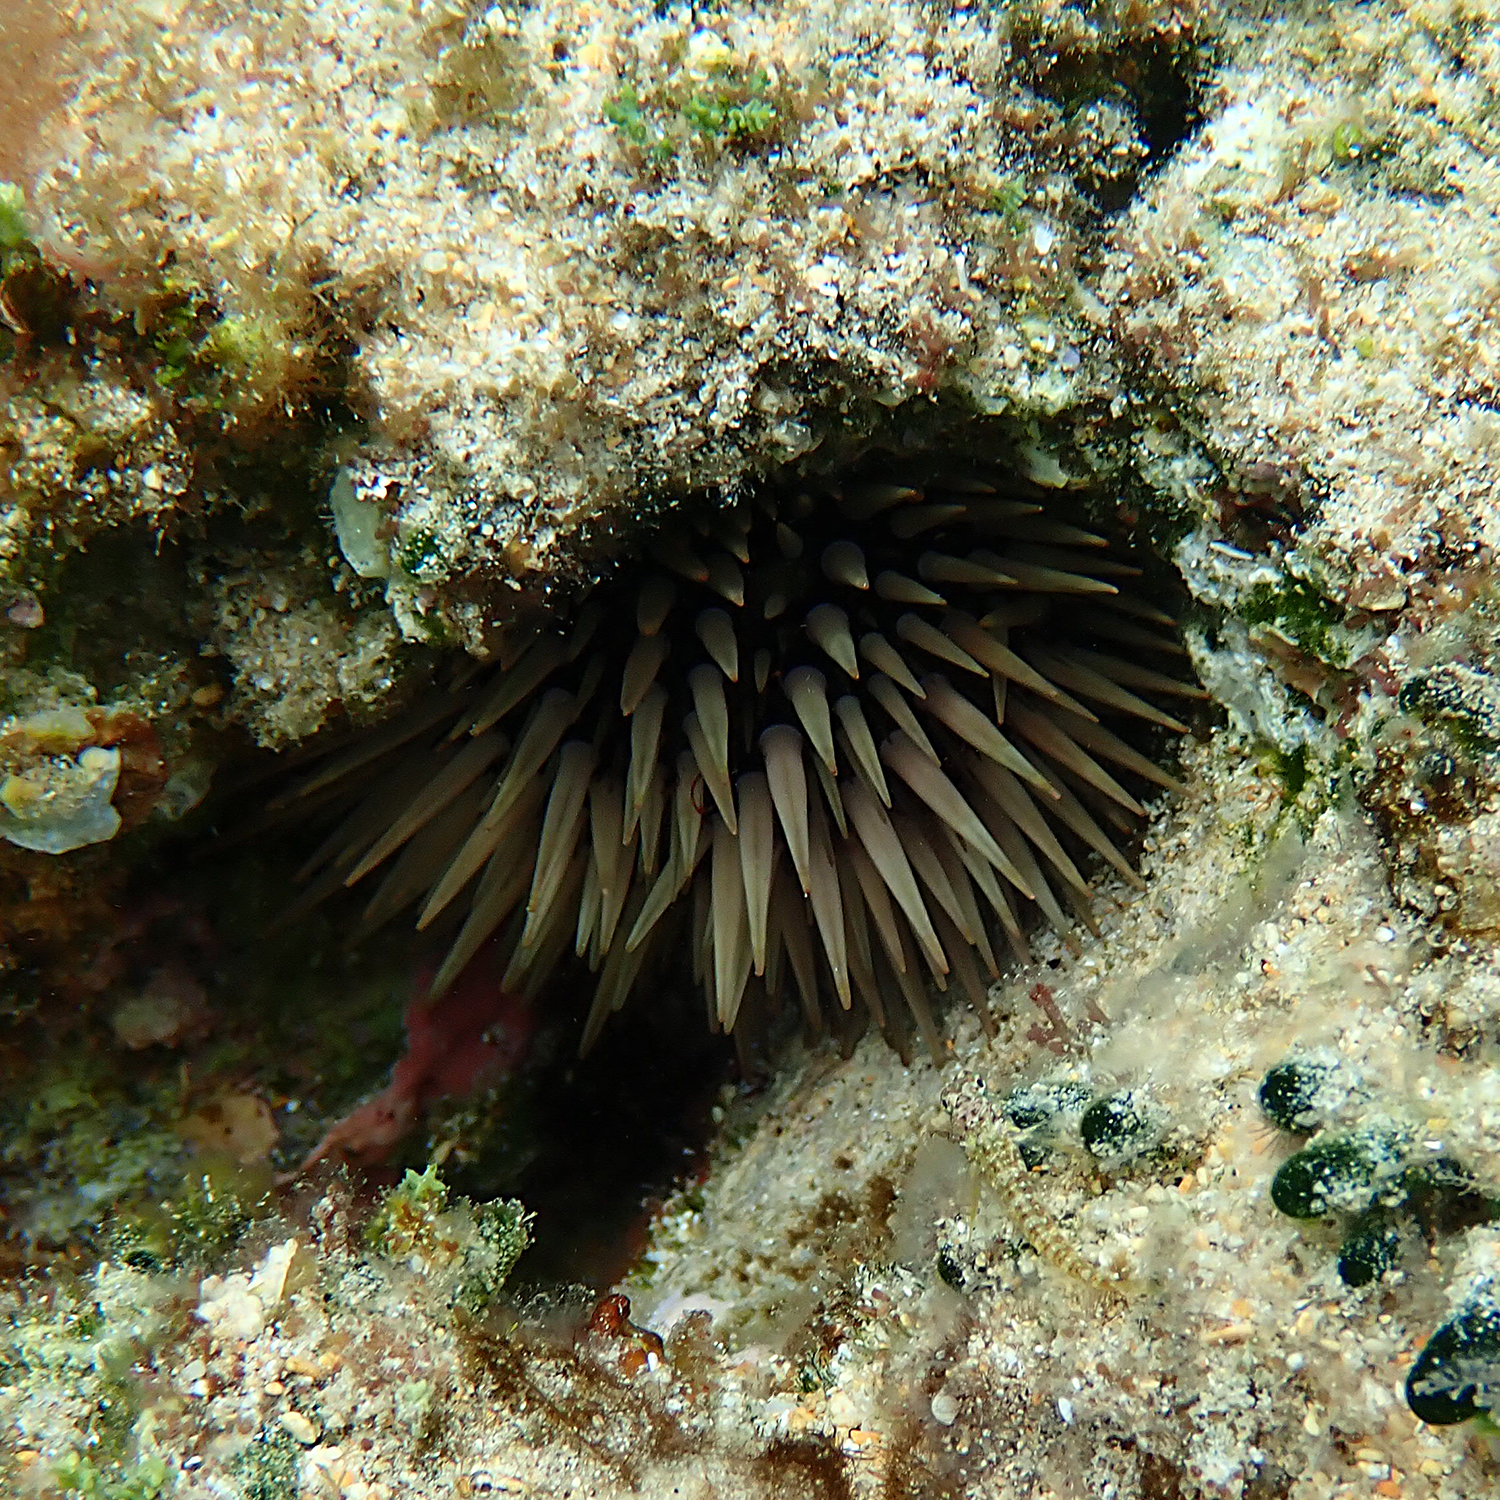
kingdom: Animalia
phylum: Echinodermata
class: Echinoidea
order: Camarodonta
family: Echinometridae
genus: Echinometra
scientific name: Echinometra mathaei
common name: Rock-boring urchin
